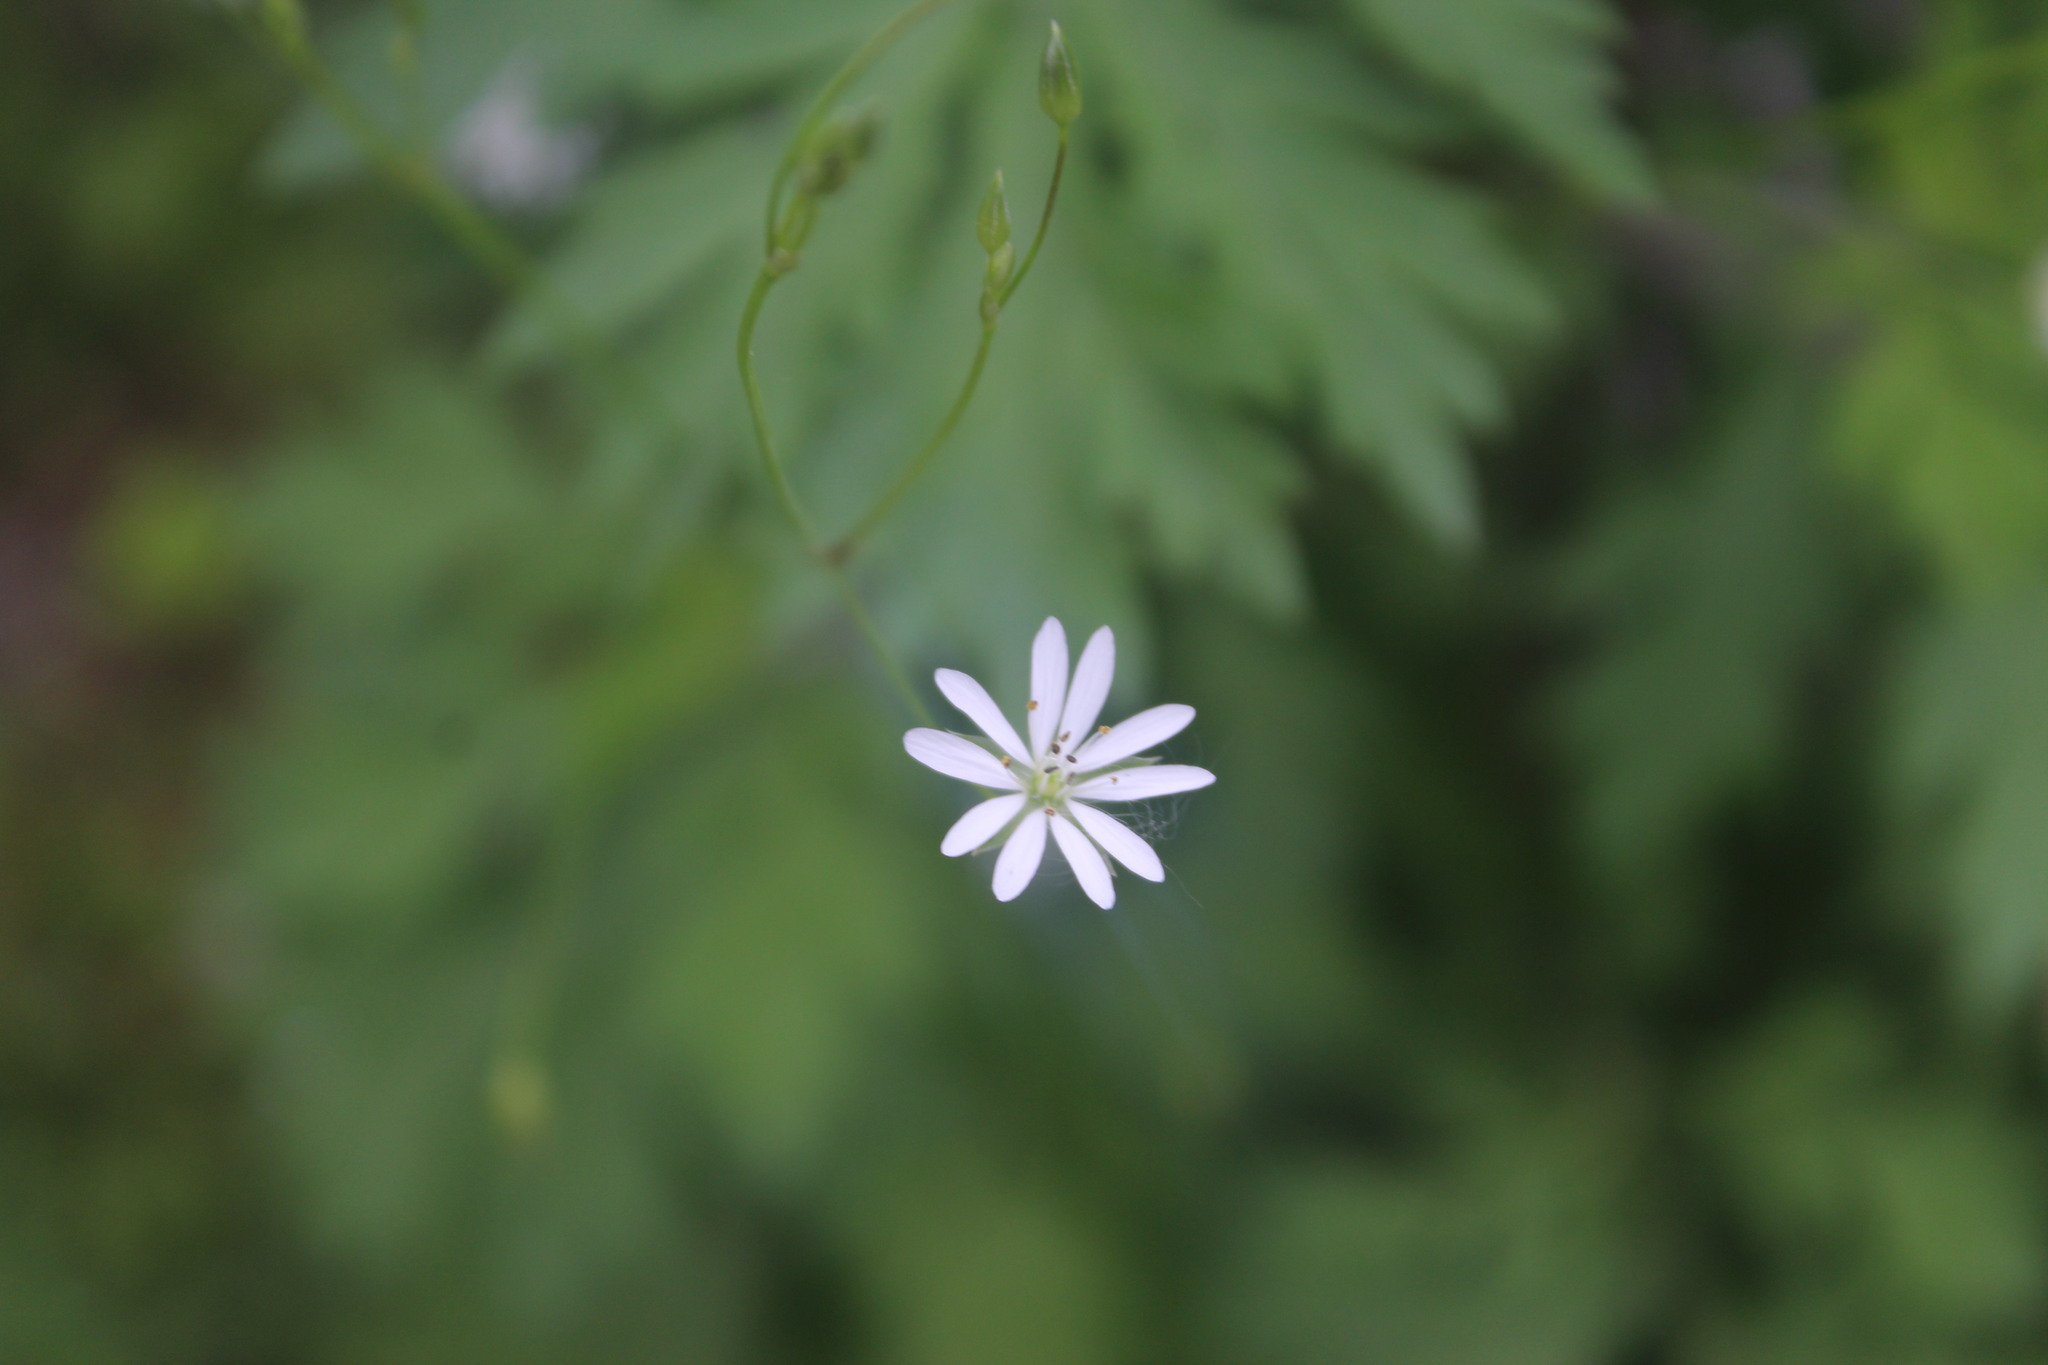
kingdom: Plantae
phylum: Tracheophyta
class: Magnoliopsida
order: Caryophyllales
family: Caryophyllaceae
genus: Stellaria
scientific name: Stellaria graminea
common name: Grass-like starwort
